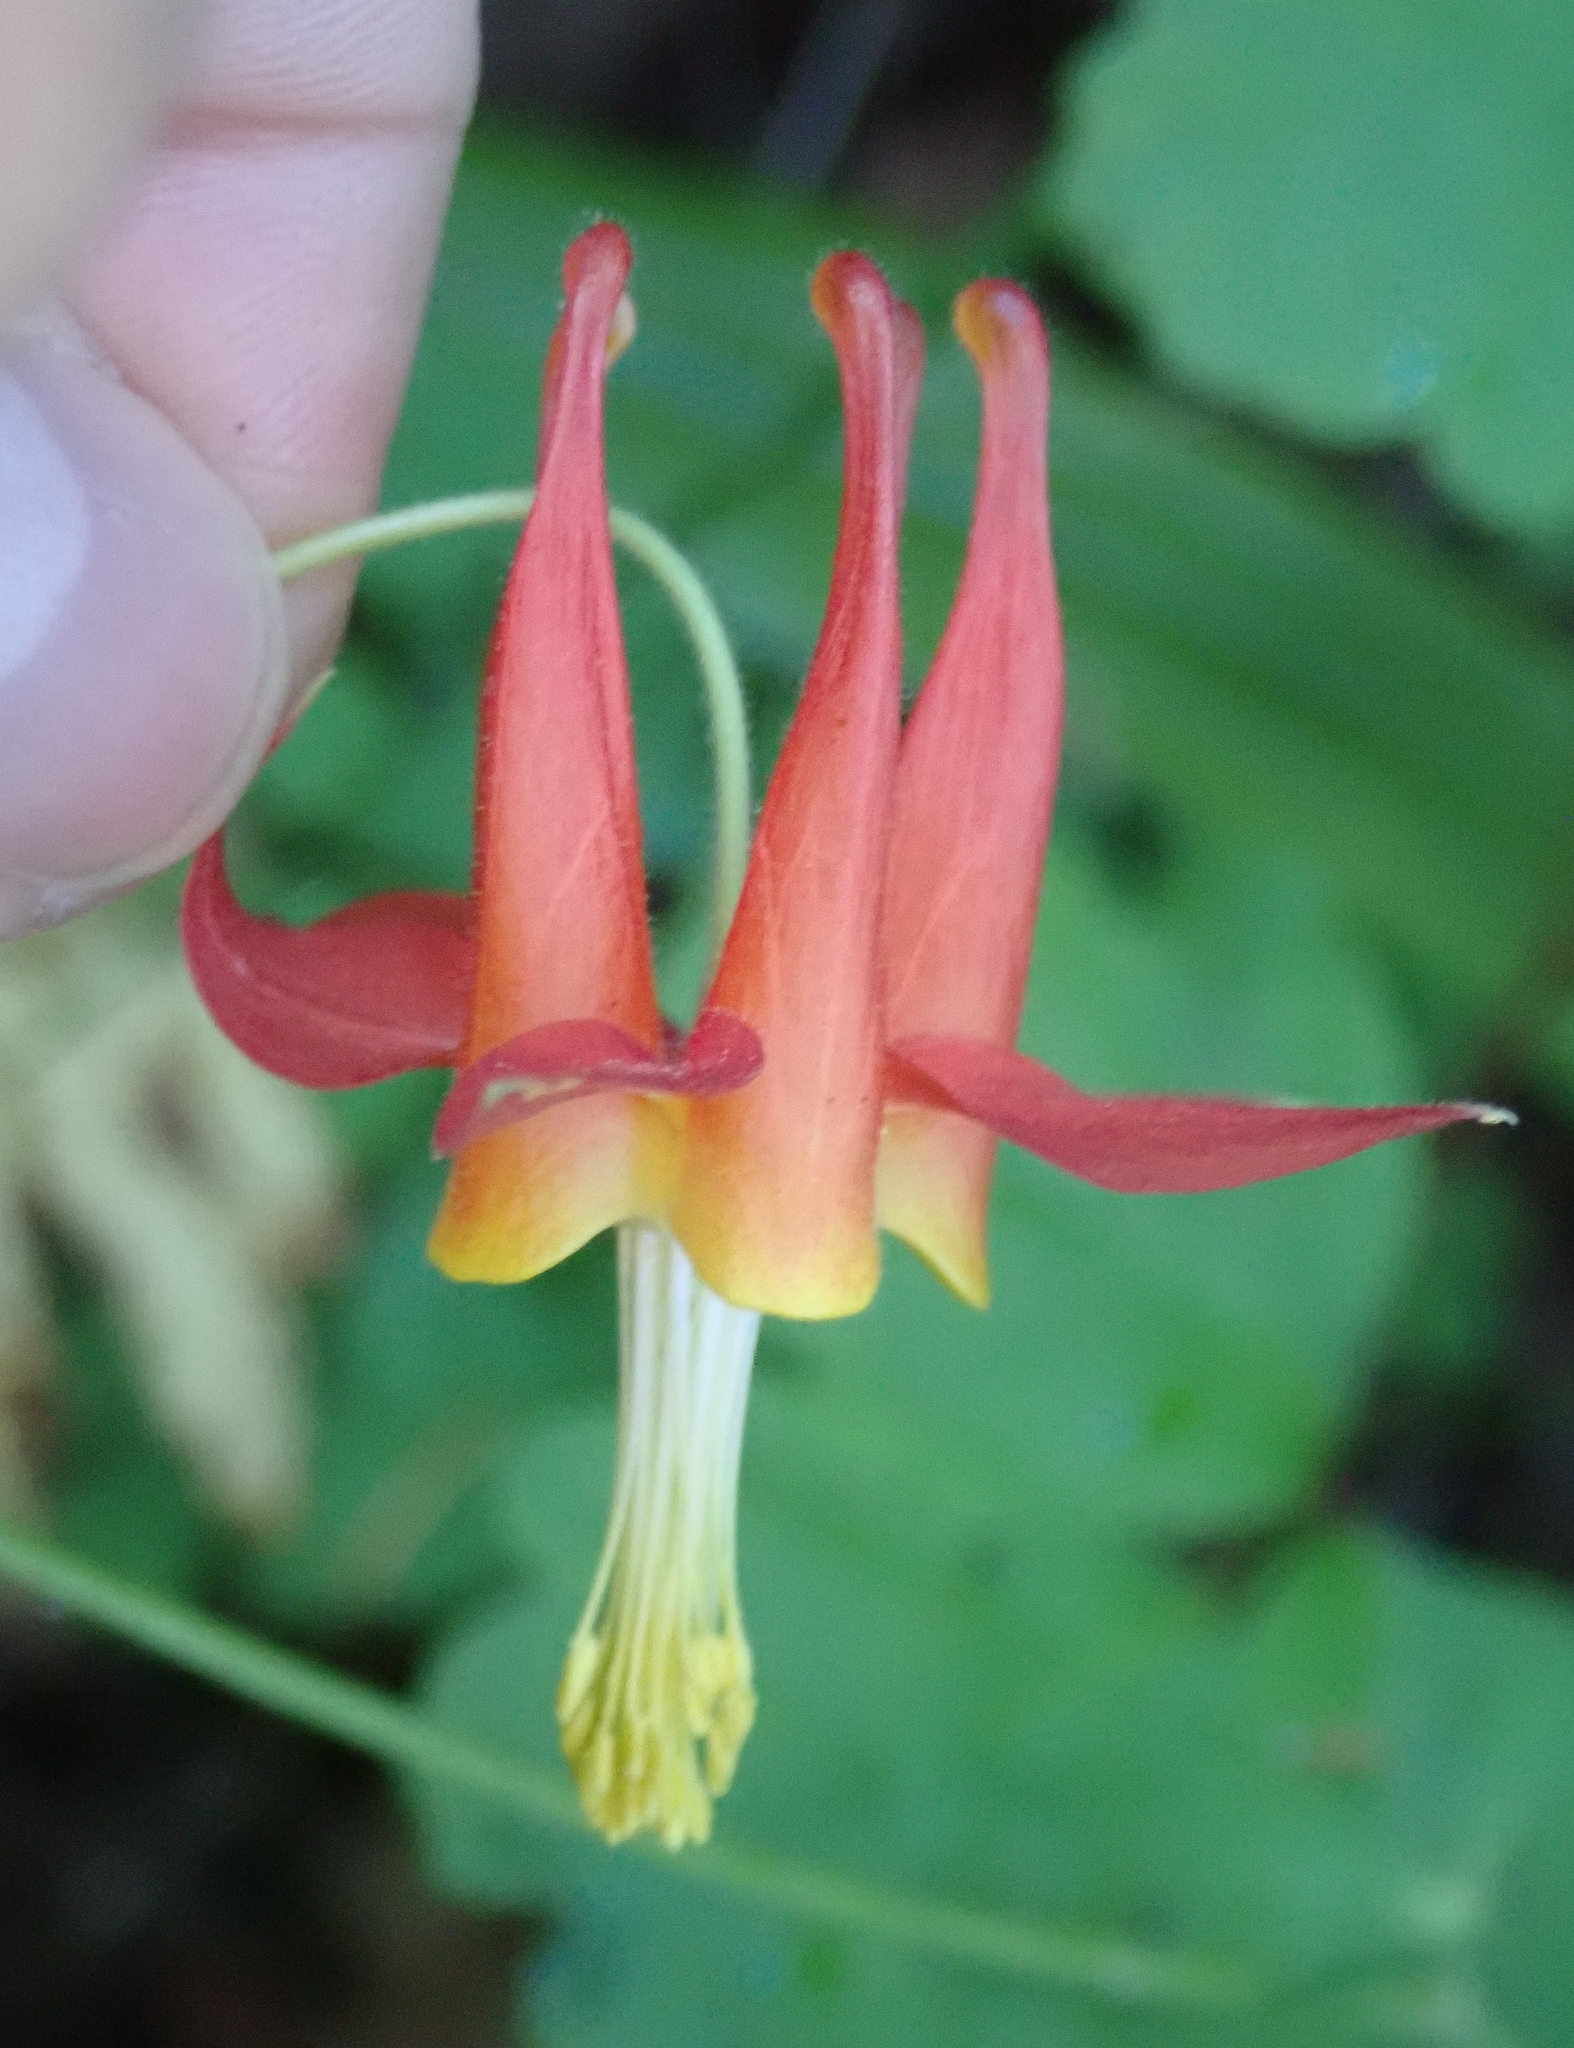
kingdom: Plantae
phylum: Tracheophyta
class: Magnoliopsida
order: Ranunculales
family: Ranunculaceae
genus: Aquilegia
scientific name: Aquilegia formosa
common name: Sitka columbine
